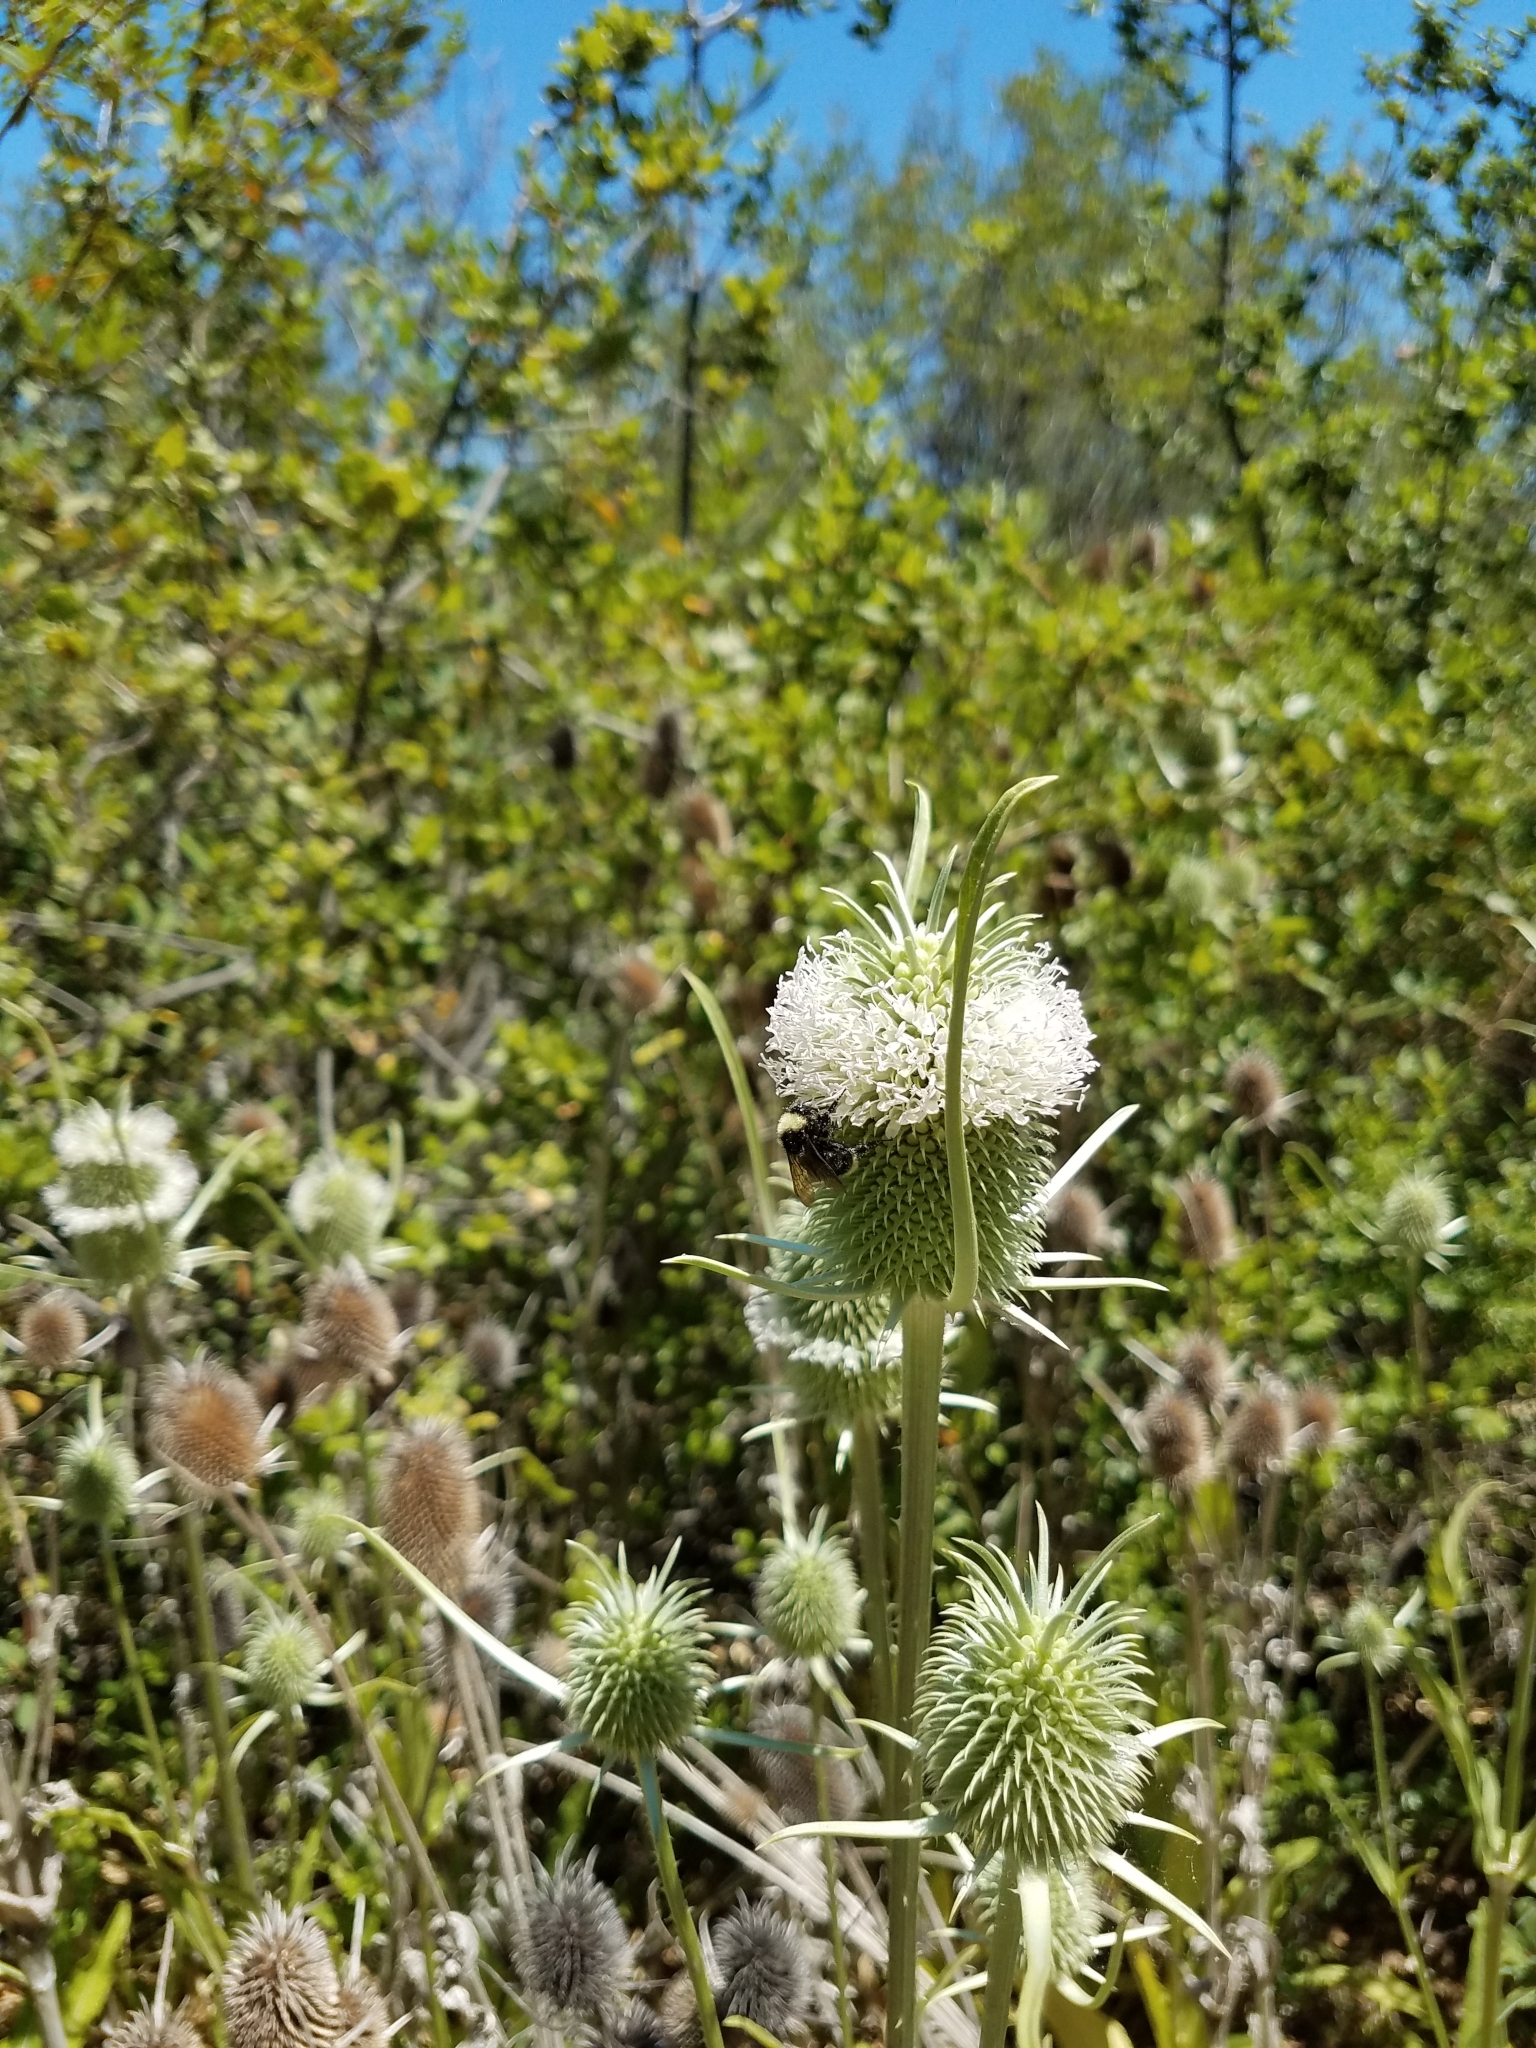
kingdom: Plantae
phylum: Tracheophyta
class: Magnoliopsida
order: Dipsacales
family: Caprifoliaceae
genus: Dipsacus
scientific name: Dipsacus sativus
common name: Fuller's teasel
